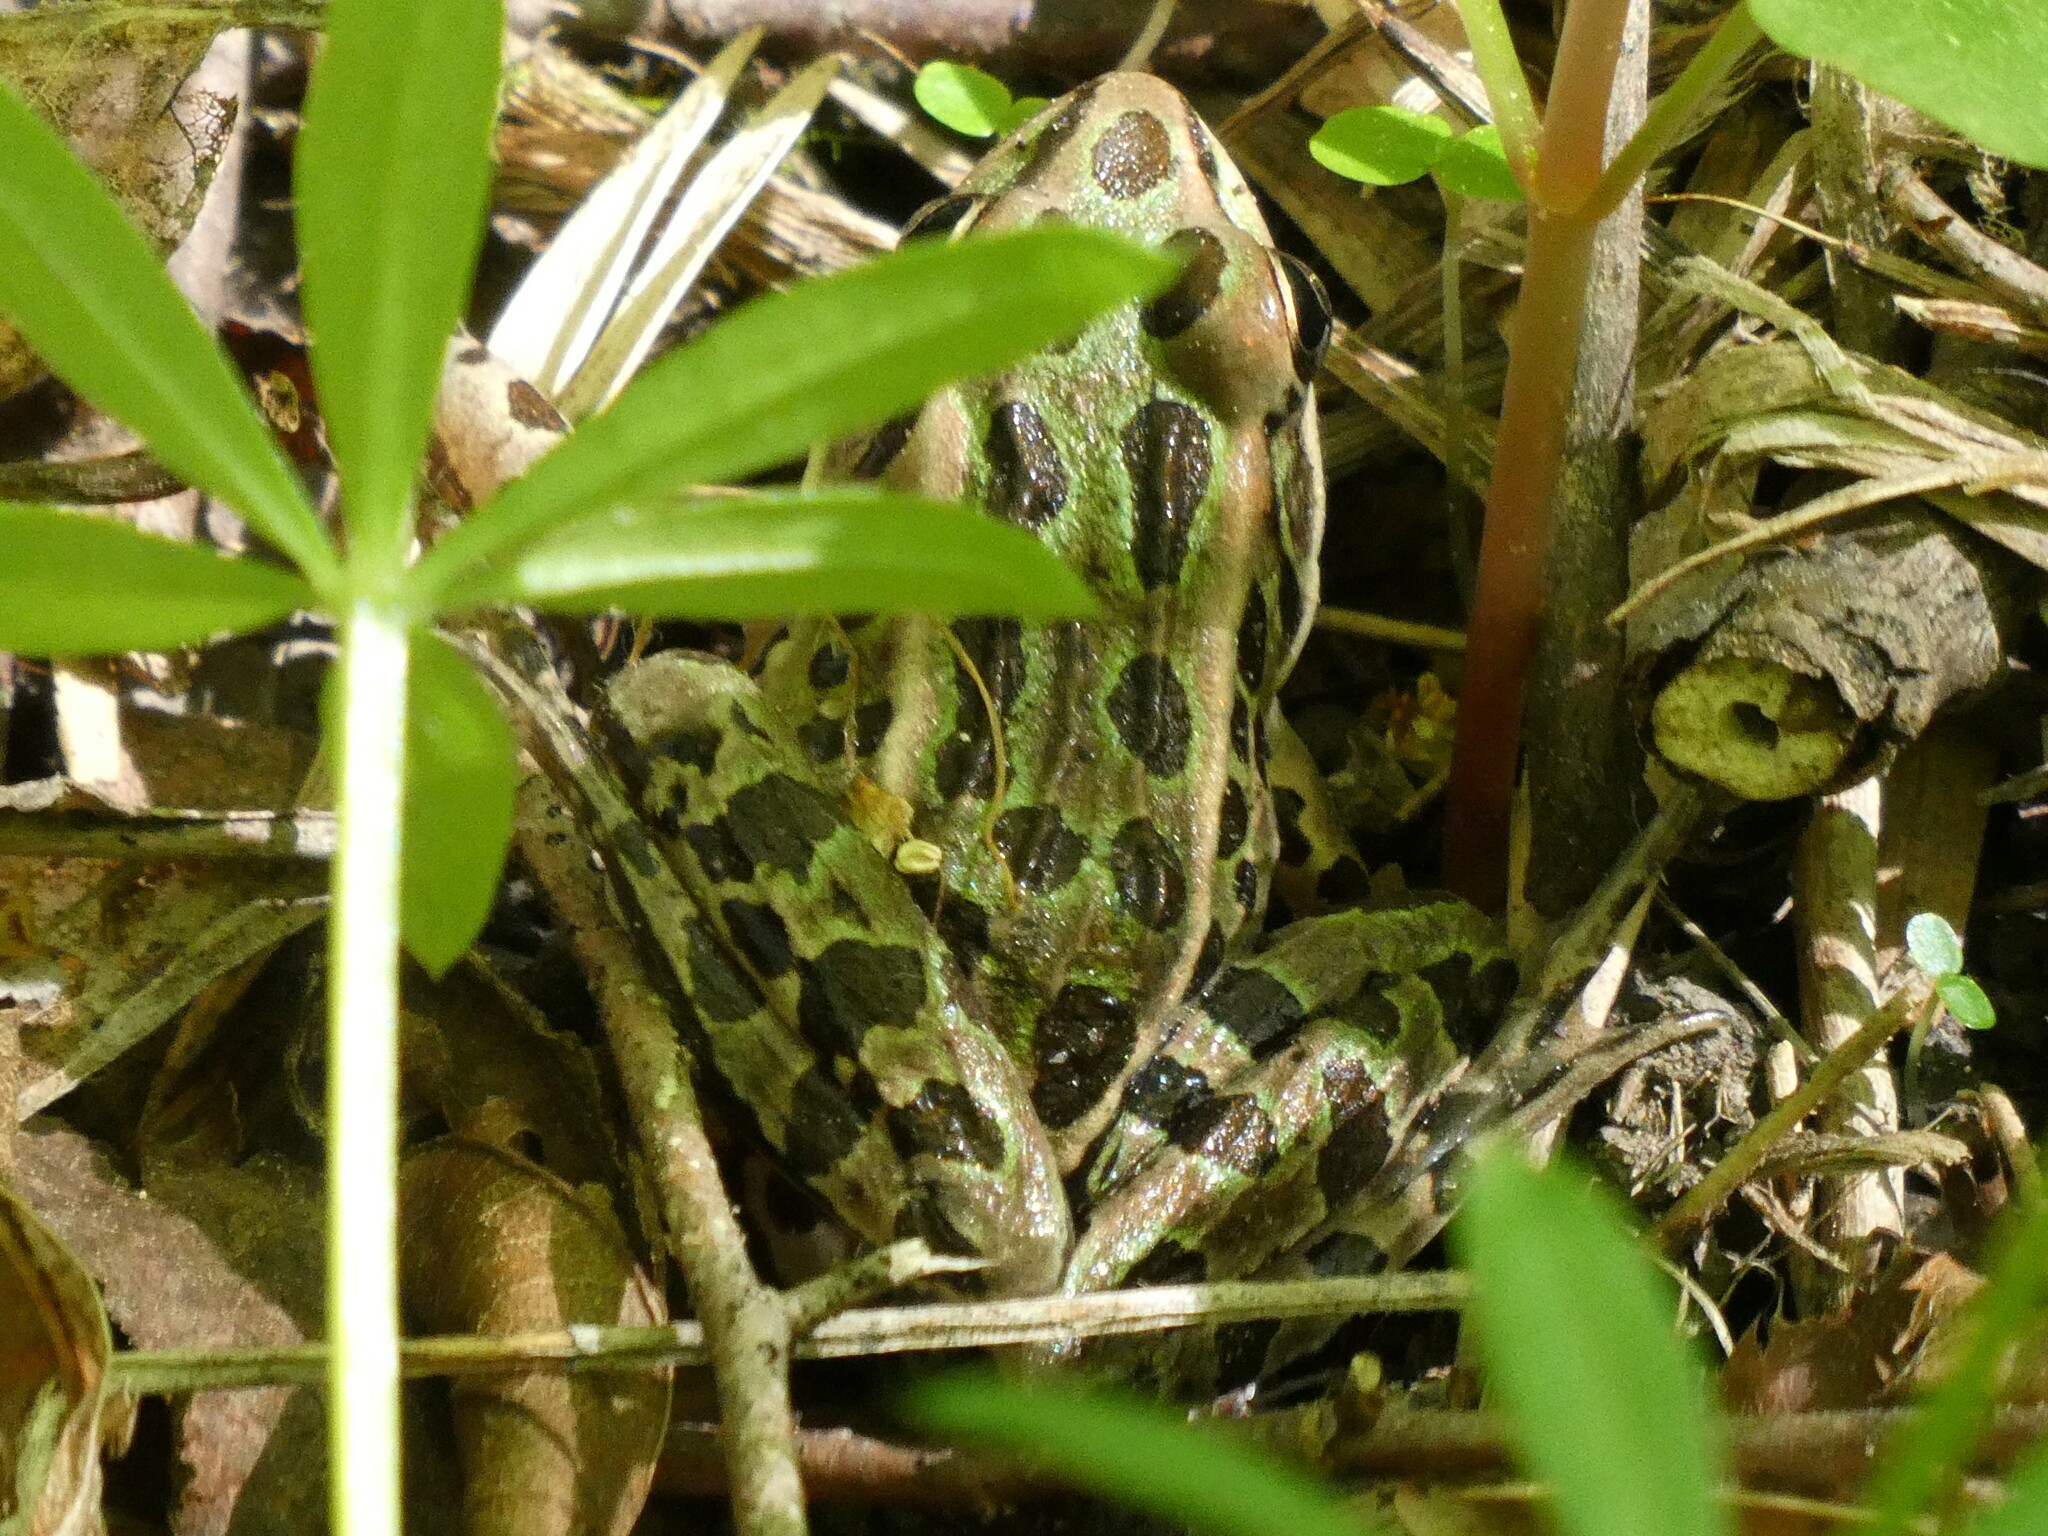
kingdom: Animalia
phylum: Chordata
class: Amphibia
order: Anura
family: Ranidae
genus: Lithobates
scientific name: Lithobates pipiens
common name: Northern leopard frog
